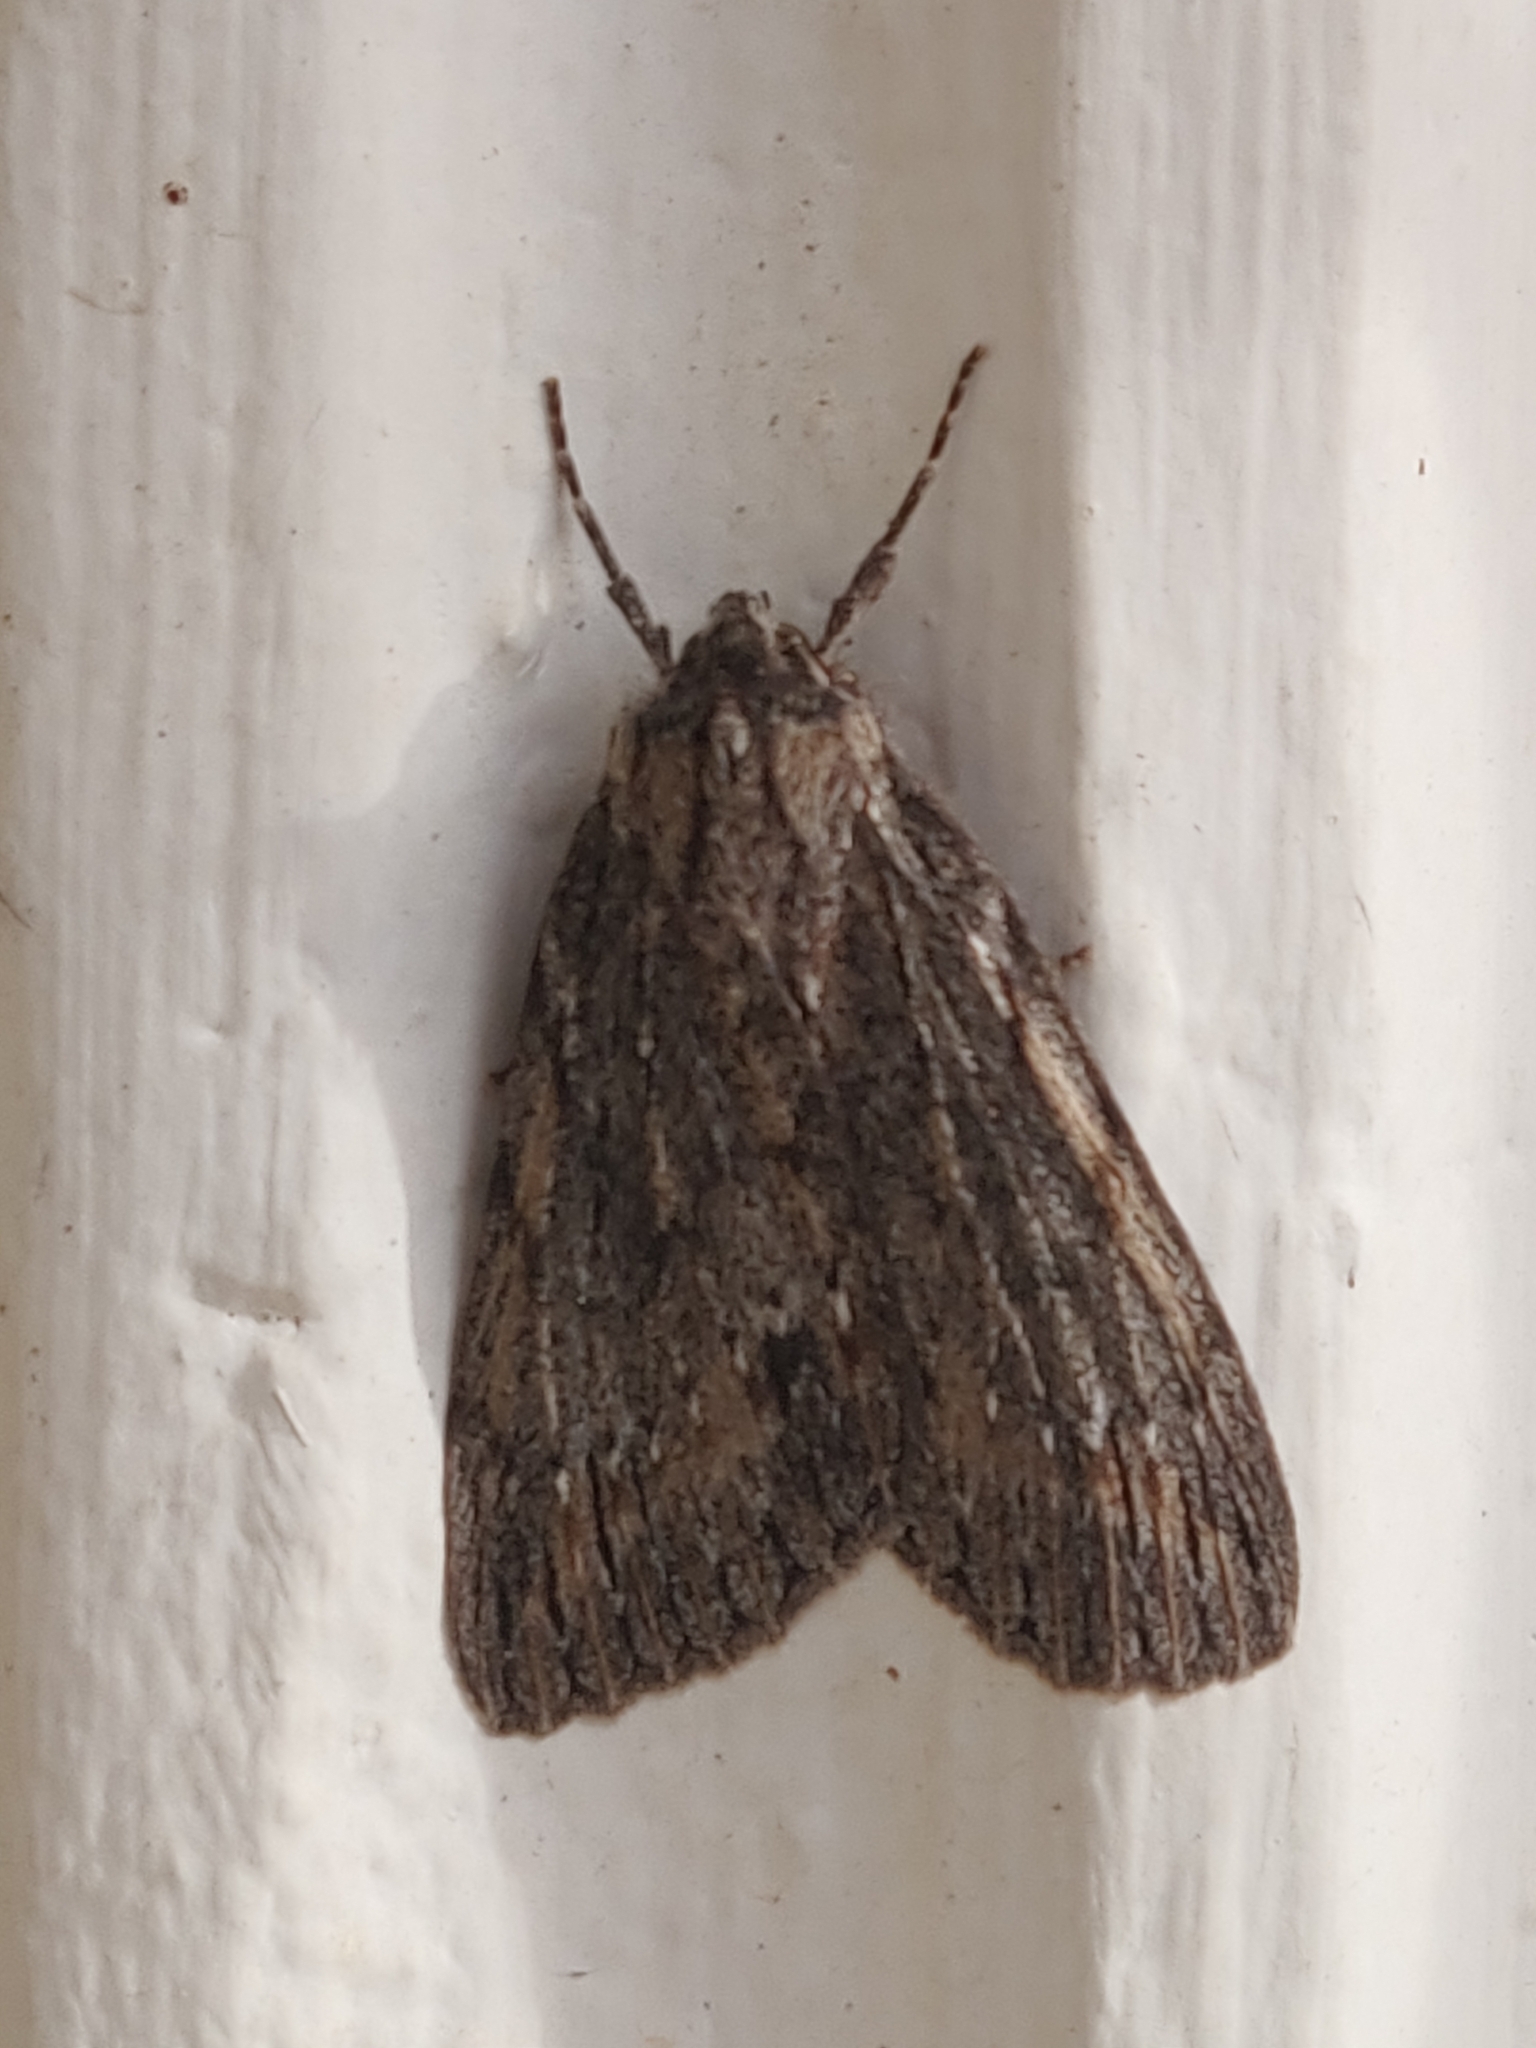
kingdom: Animalia
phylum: Arthropoda
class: Insecta
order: Lepidoptera
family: Geometridae
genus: Chlenias
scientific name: Chlenias banksiaria
